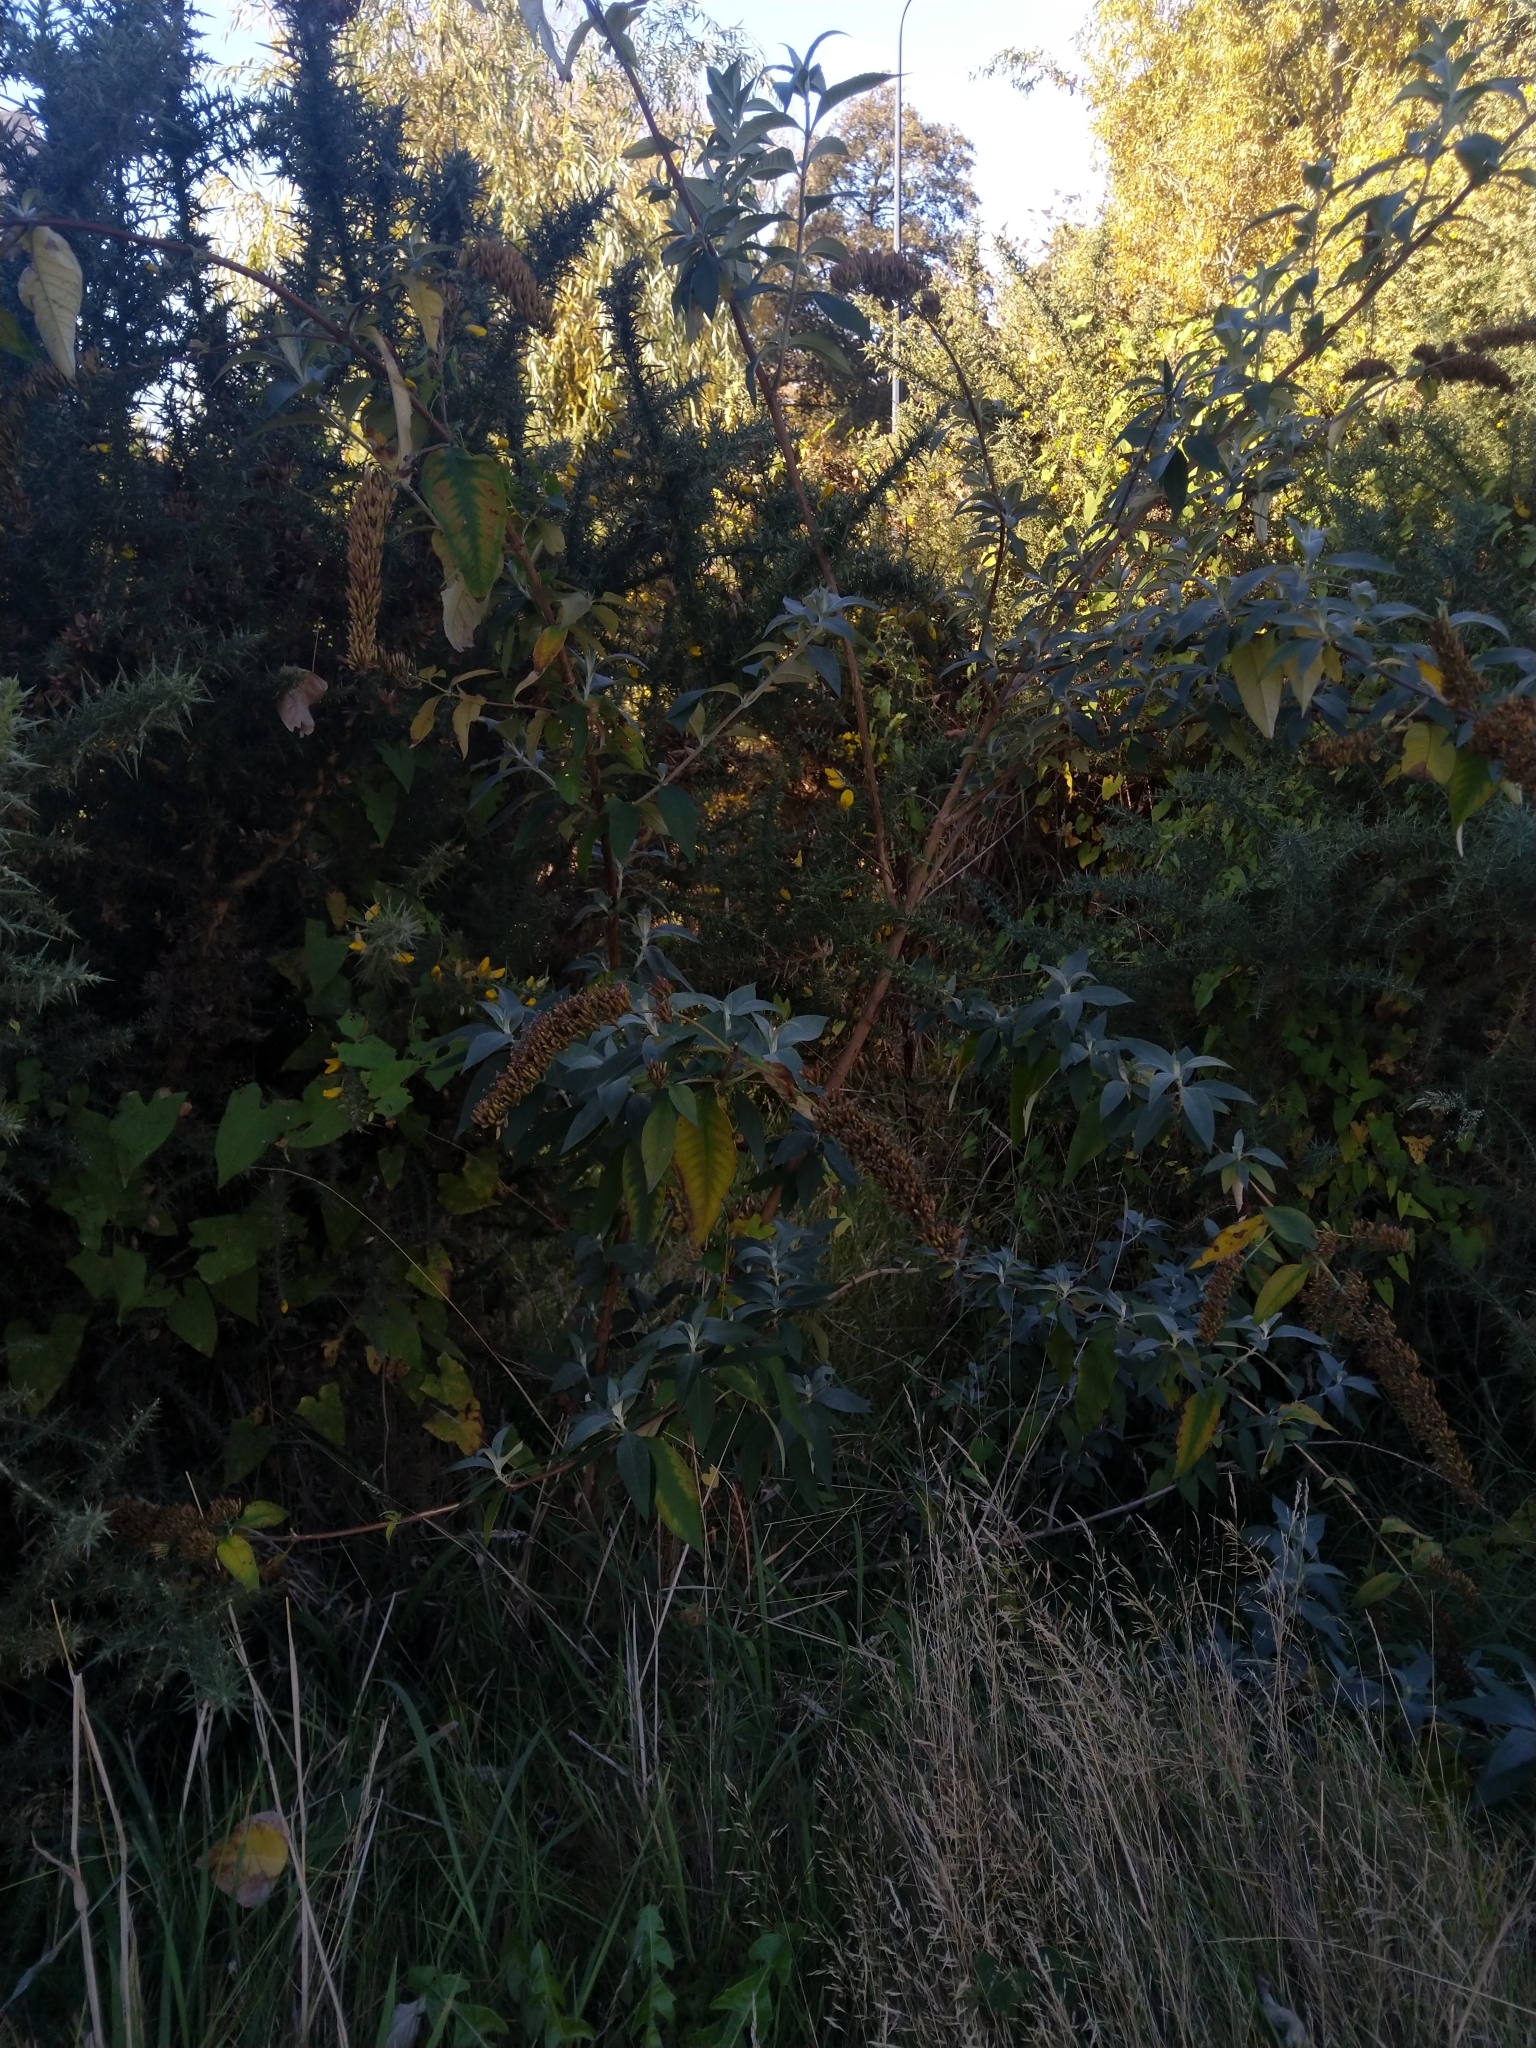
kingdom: Plantae
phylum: Tracheophyta
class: Magnoliopsida
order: Lamiales
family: Scrophulariaceae
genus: Buddleja
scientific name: Buddleja davidii
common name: Butterfly-bush
